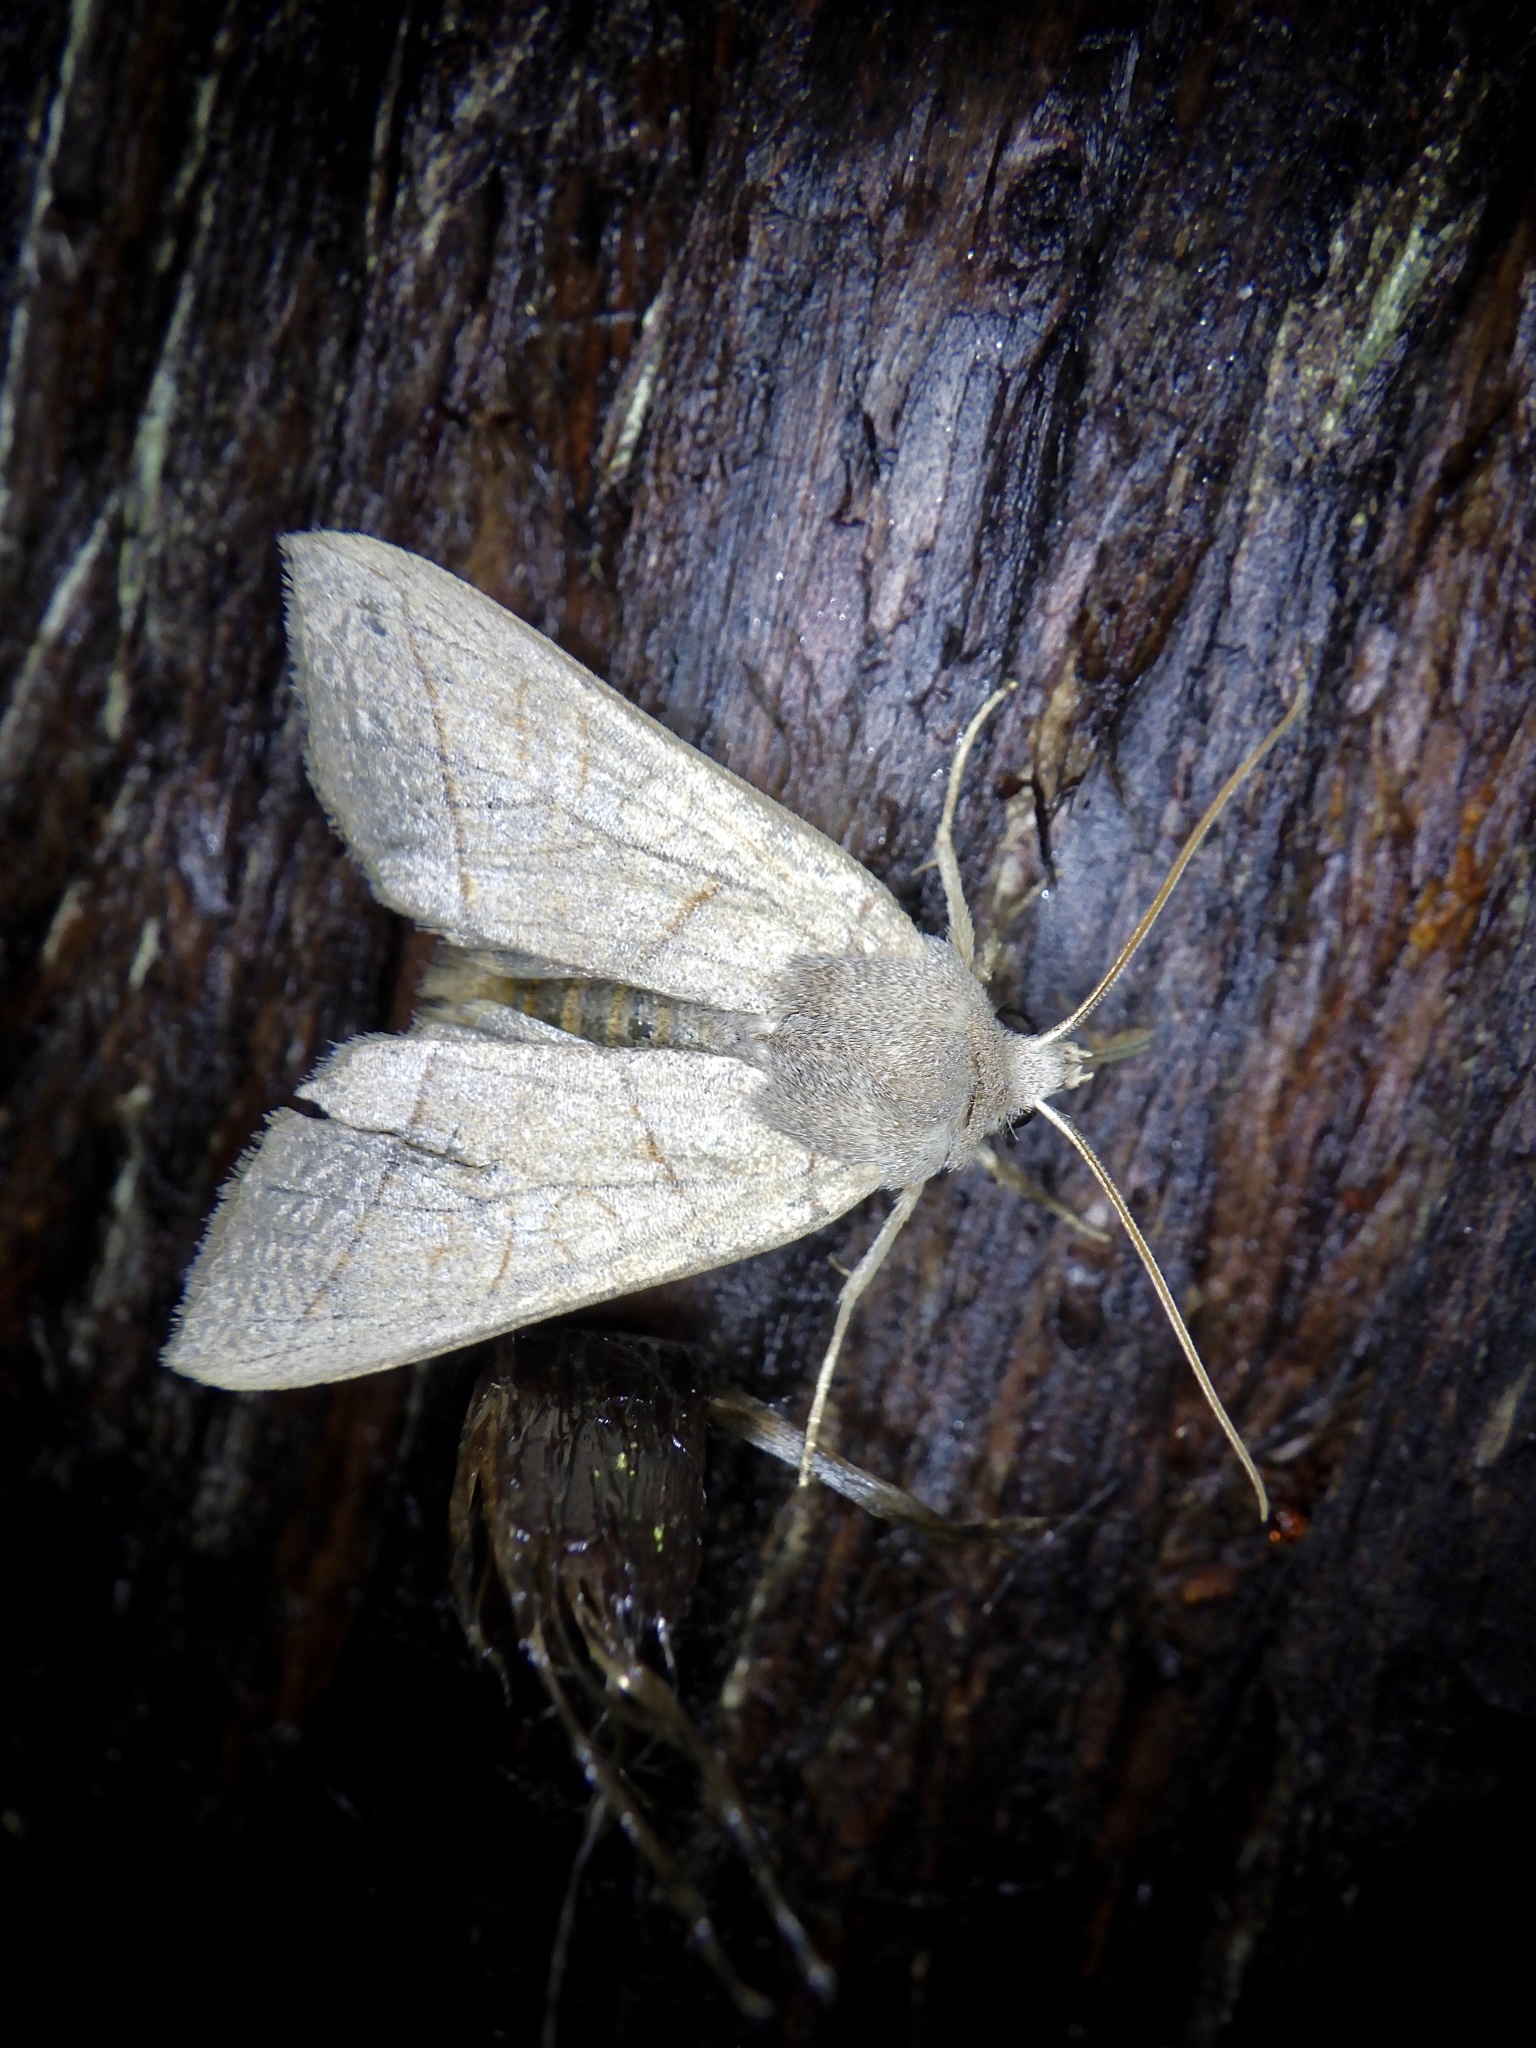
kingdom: Animalia
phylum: Arthropoda
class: Insecta
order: Lepidoptera
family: Noctuidae
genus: Telorta
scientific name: Telorta divergens
